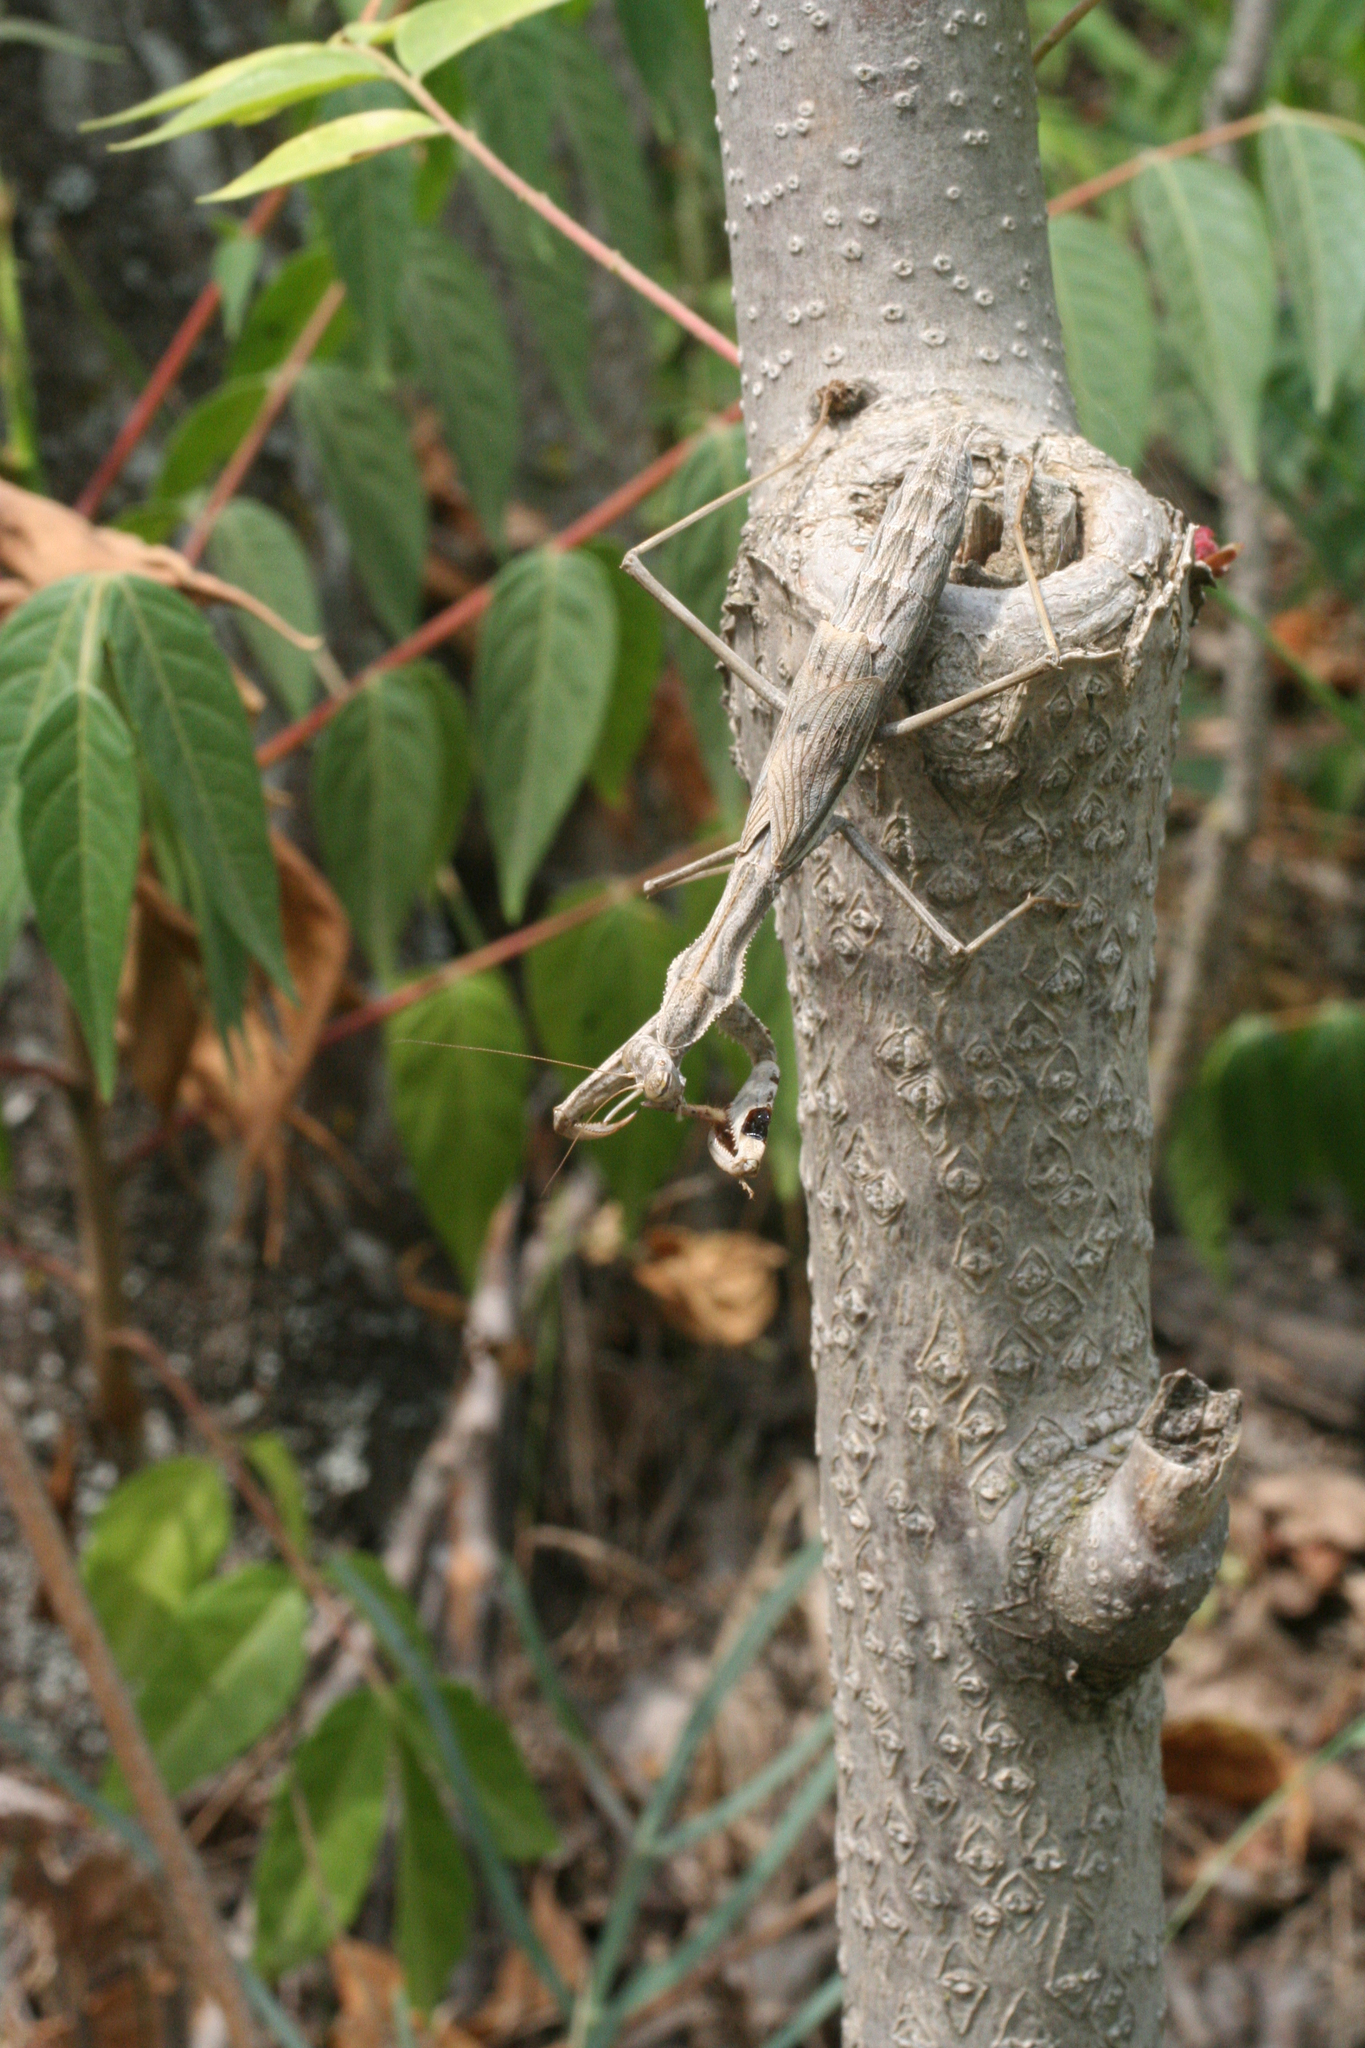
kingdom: Animalia
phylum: Arthropoda
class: Insecta
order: Mantodea
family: Rivetinidae
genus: Bolivaria
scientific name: Bolivaria brachyptera
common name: Bolivar's short winged mantis
